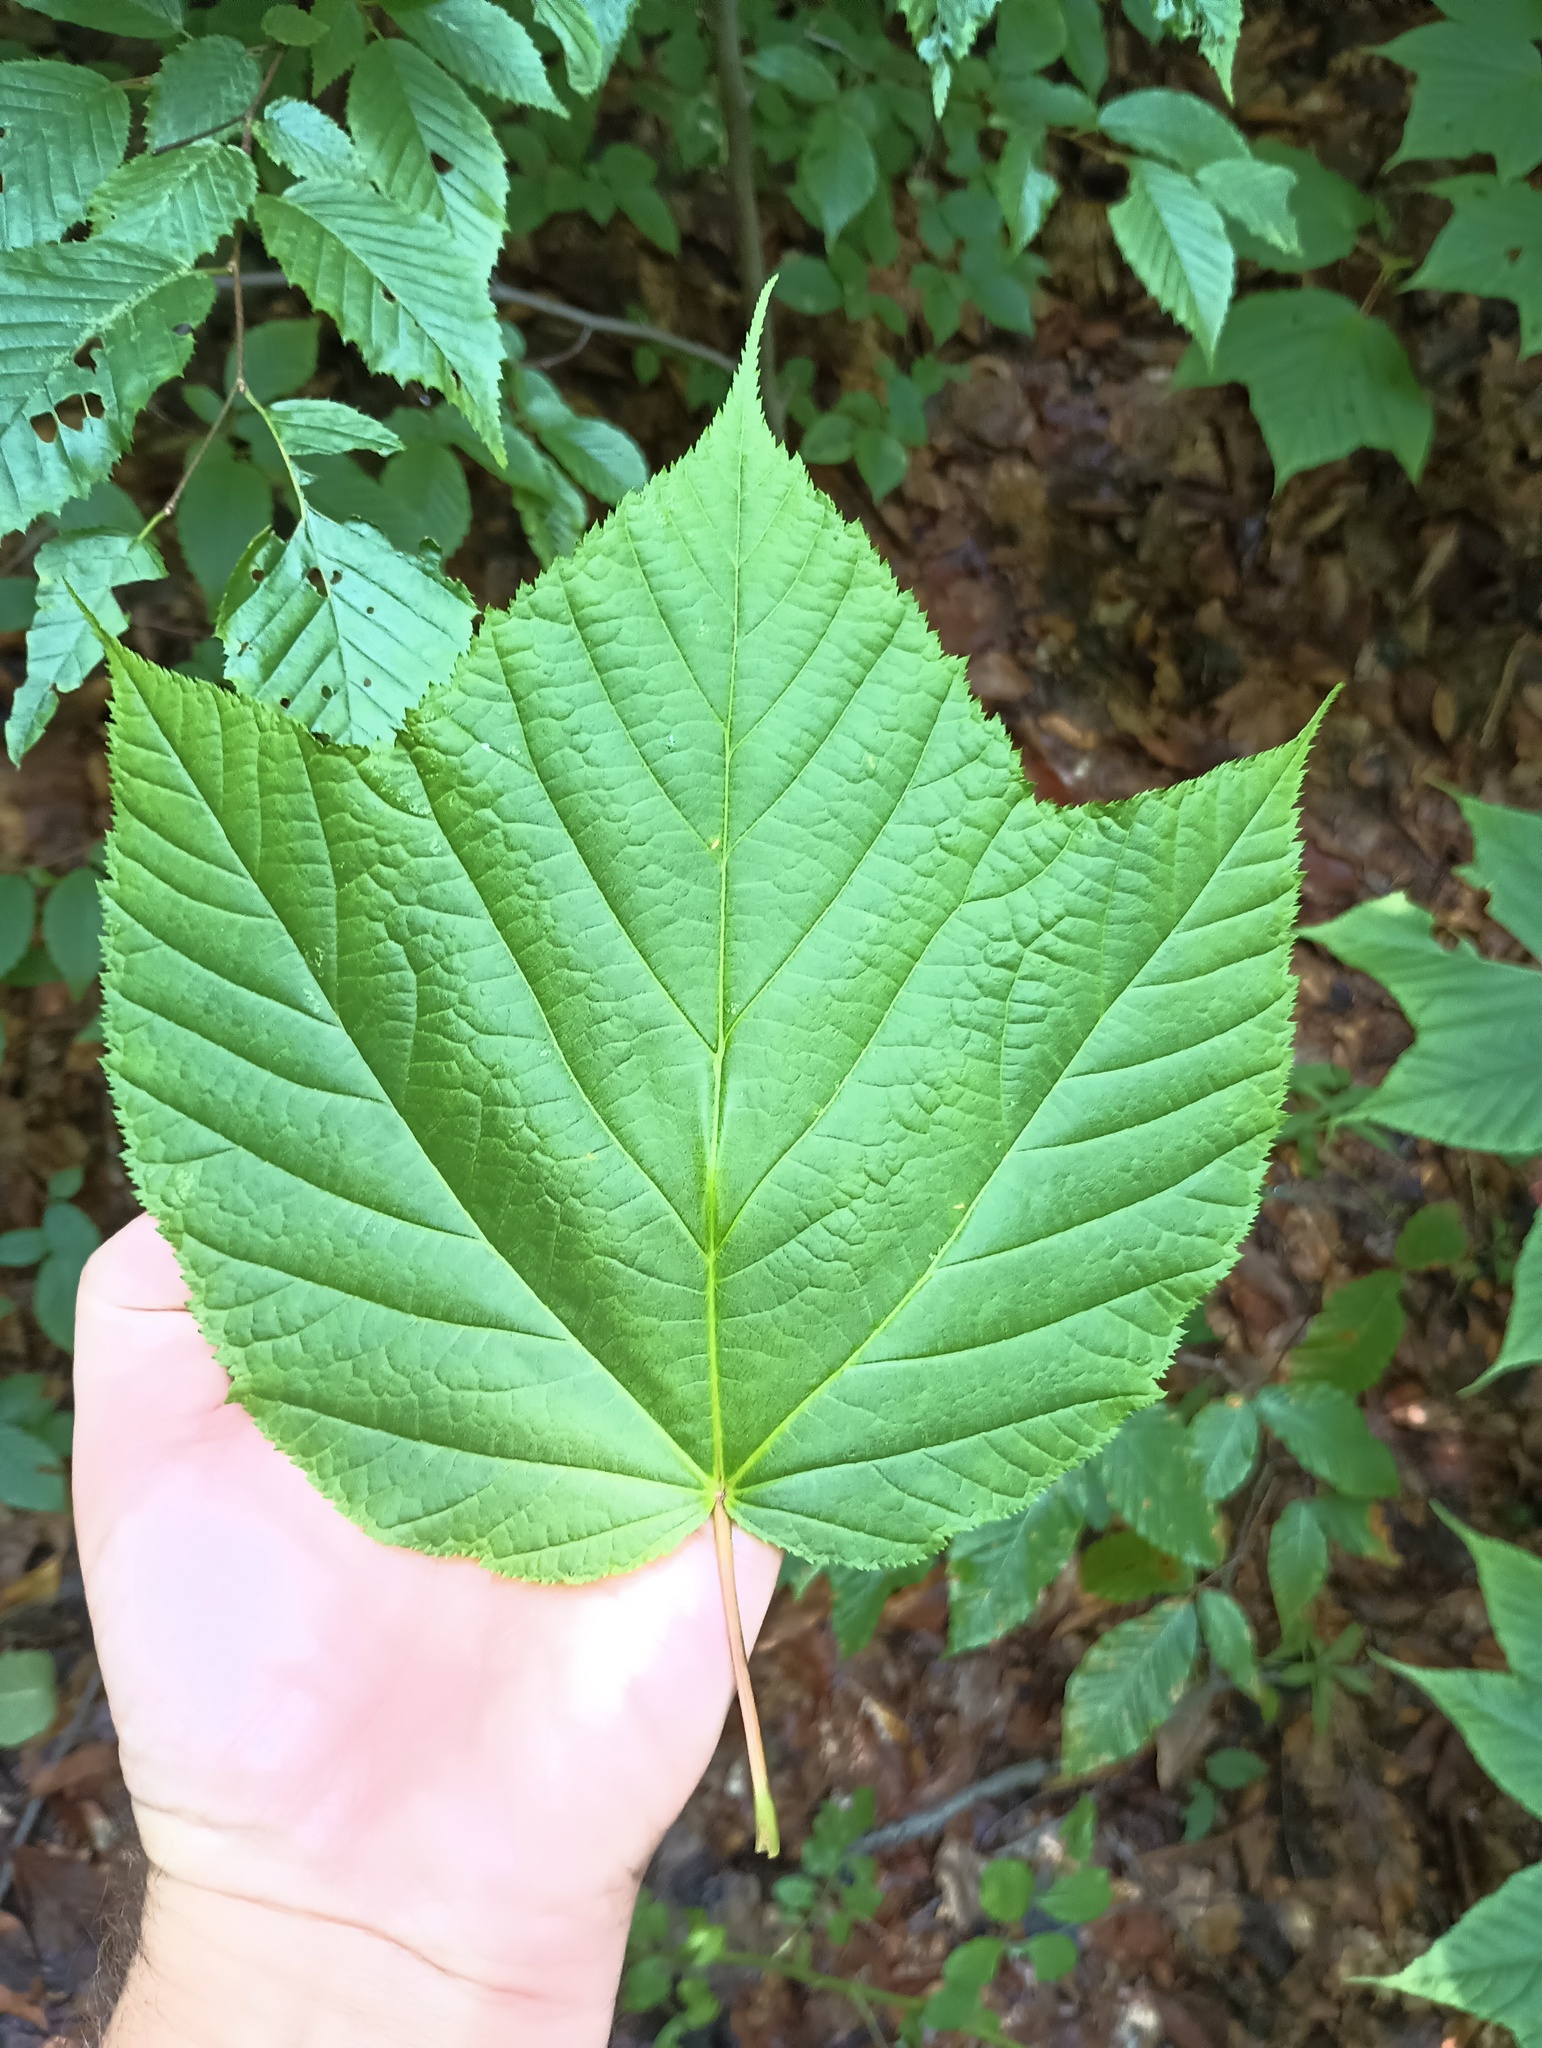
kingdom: Plantae
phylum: Tracheophyta
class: Magnoliopsida
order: Sapindales
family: Sapindaceae
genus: Acer
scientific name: Acer pensylvanicum
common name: Moosewood
